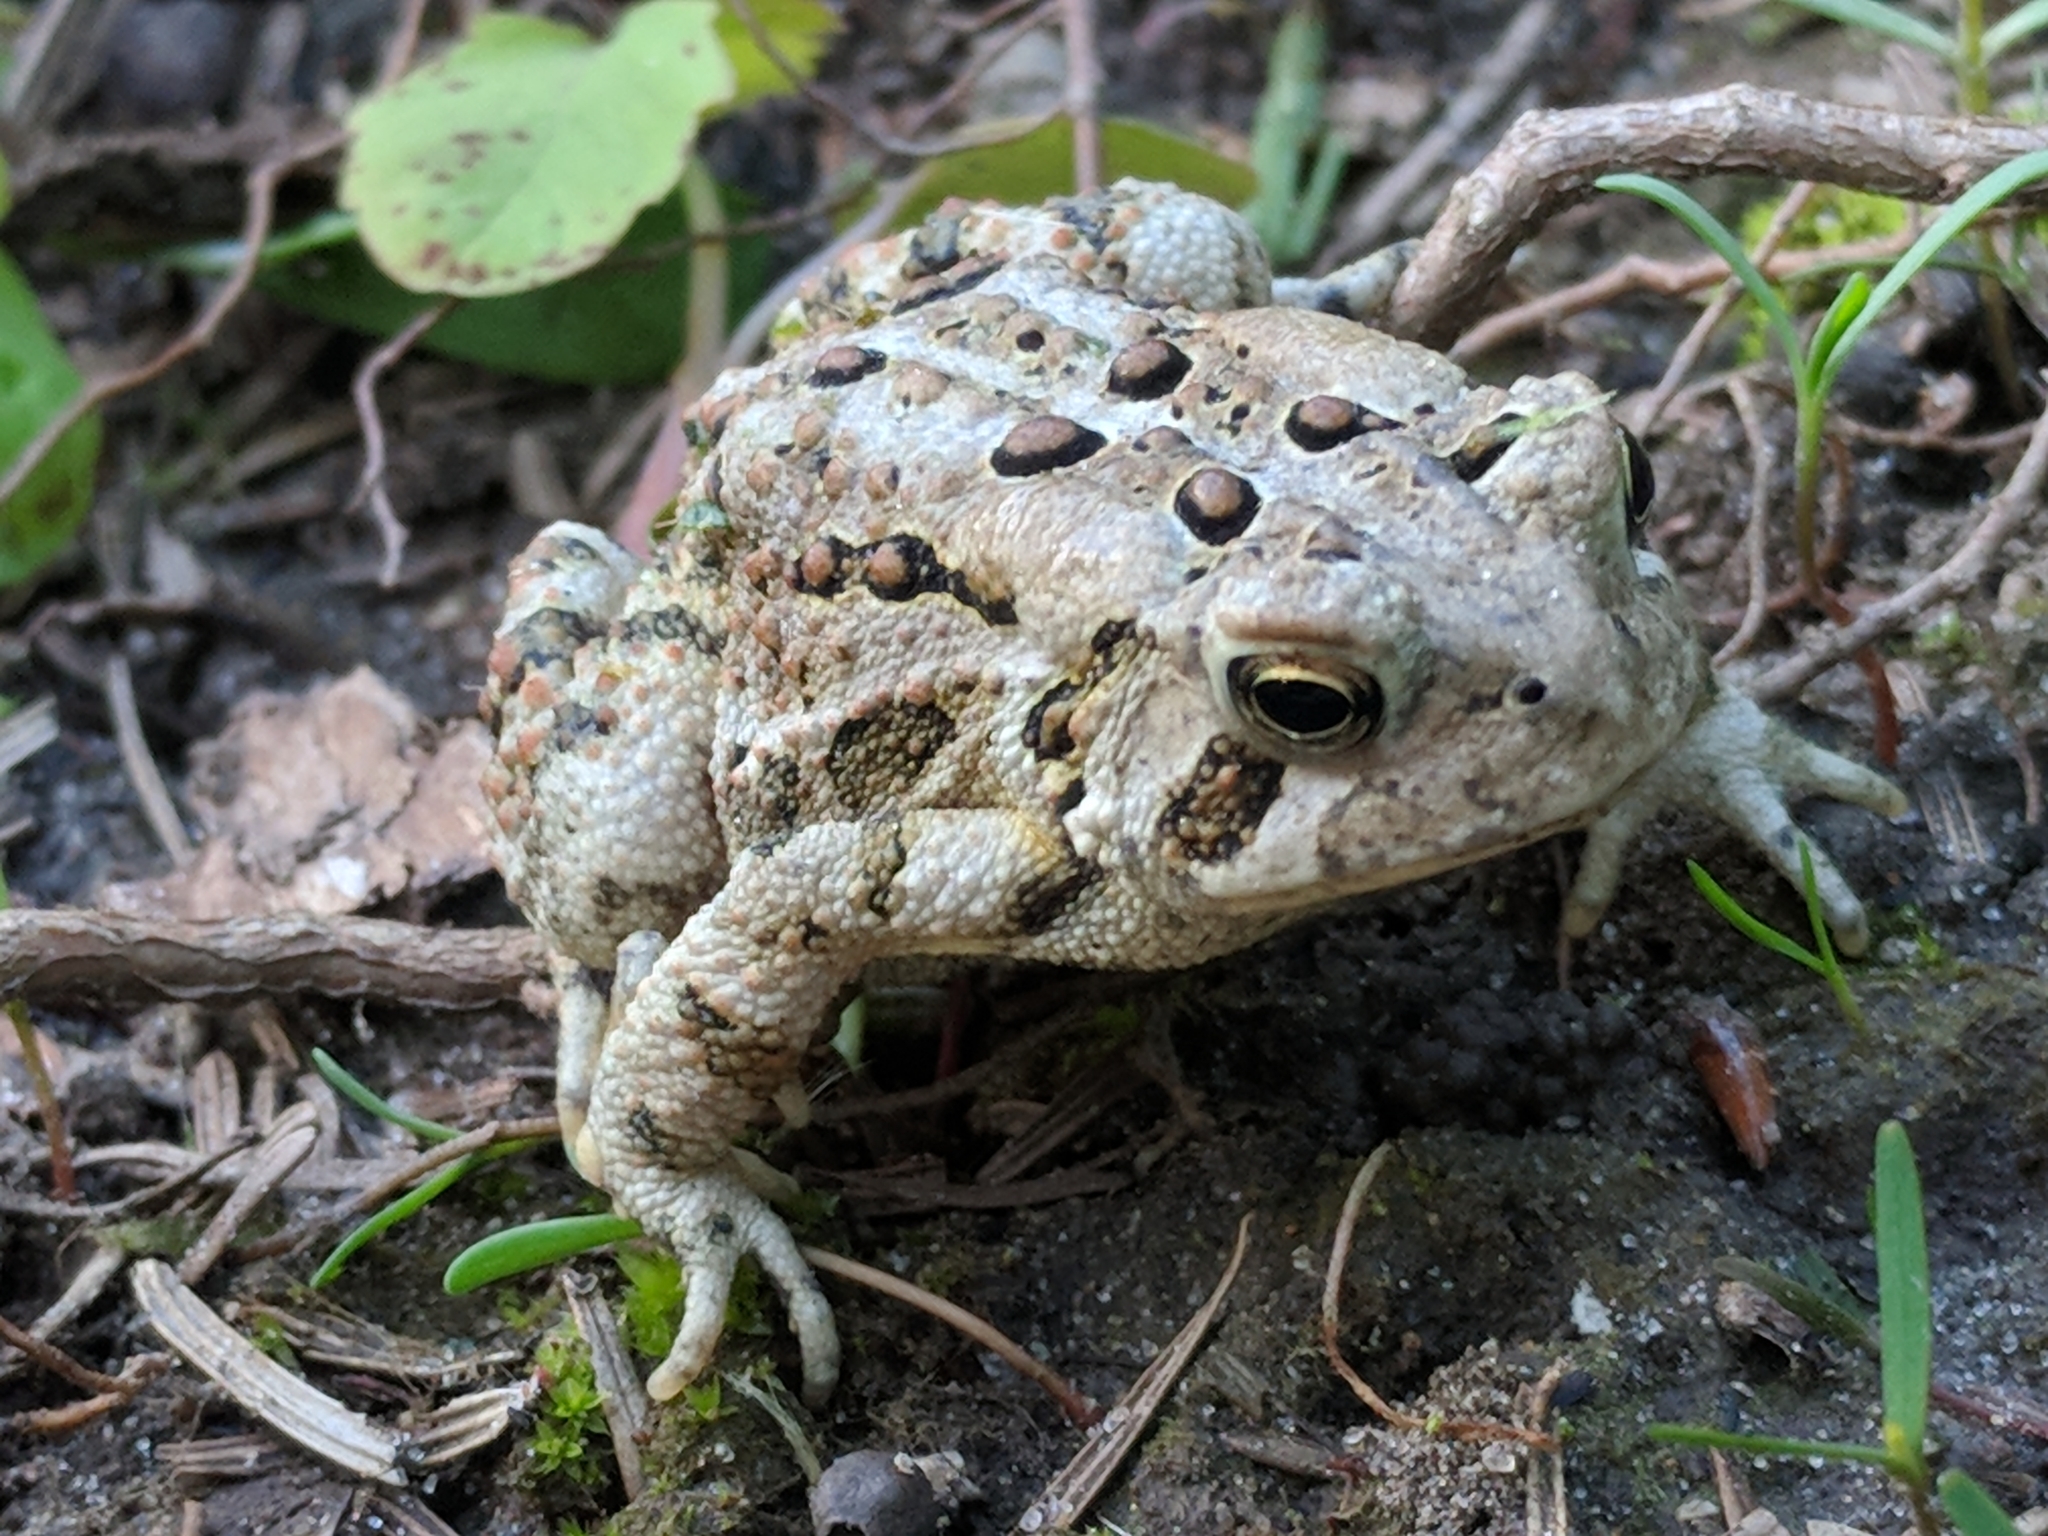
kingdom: Animalia
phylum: Chordata
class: Amphibia
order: Anura
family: Bufonidae
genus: Anaxyrus
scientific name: Anaxyrus americanus
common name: American toad
